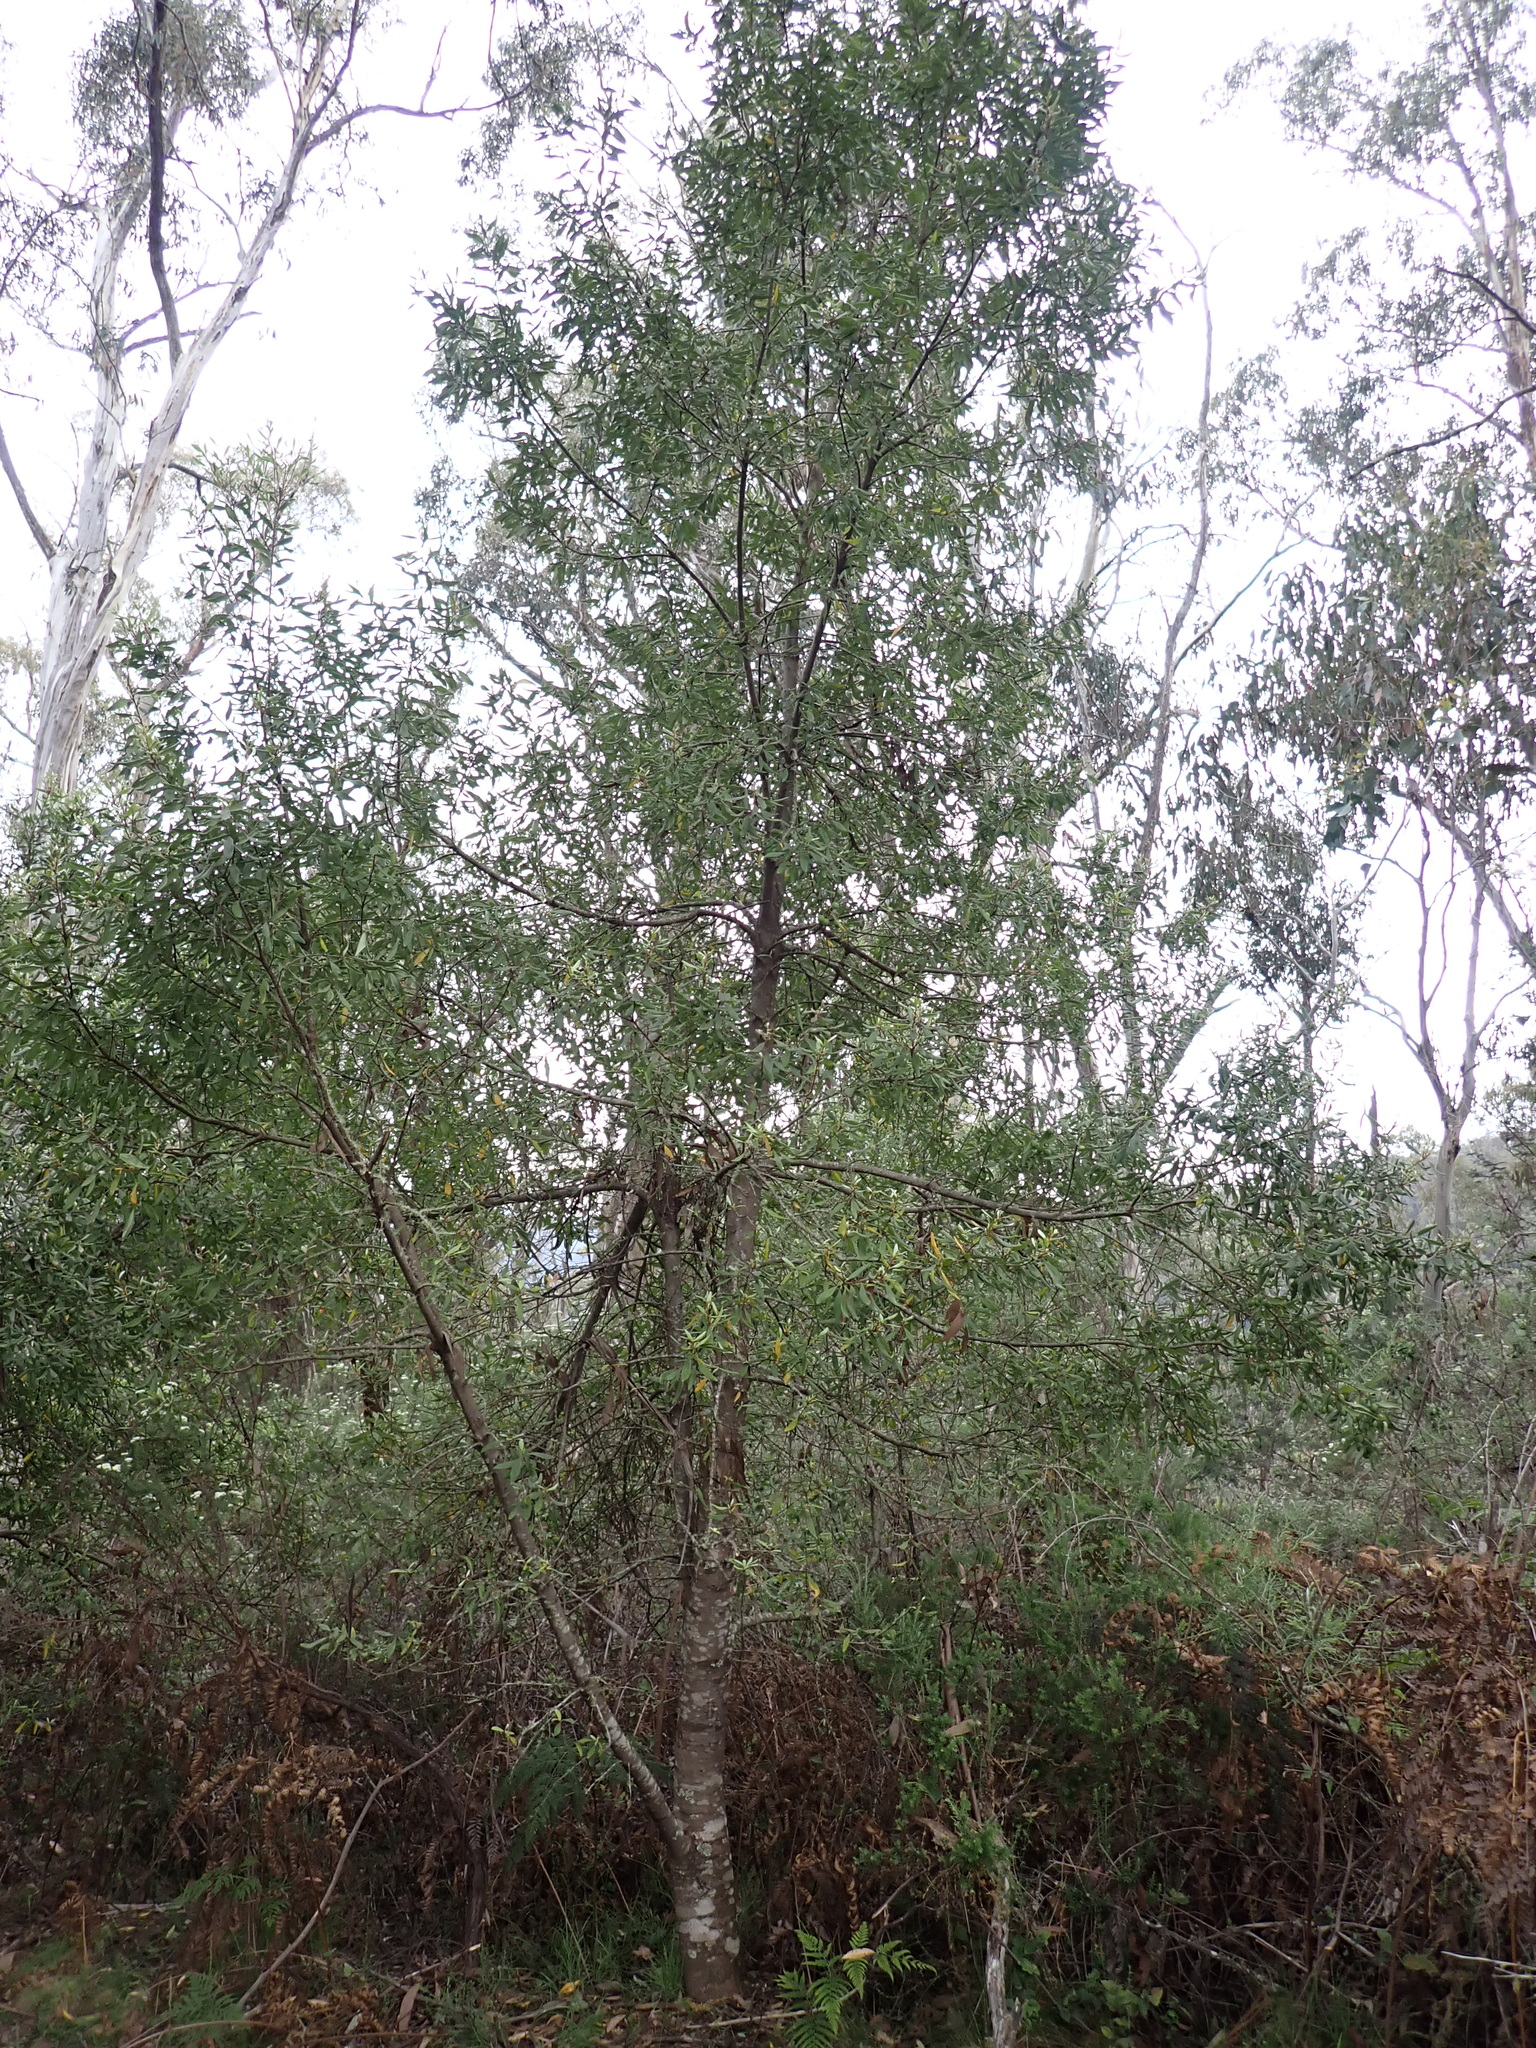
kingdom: Plantae
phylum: Tracheophyta
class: Magnoliopsida
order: Proteales
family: Proteaceae
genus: Persoonia
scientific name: Persoonia subvelutina
